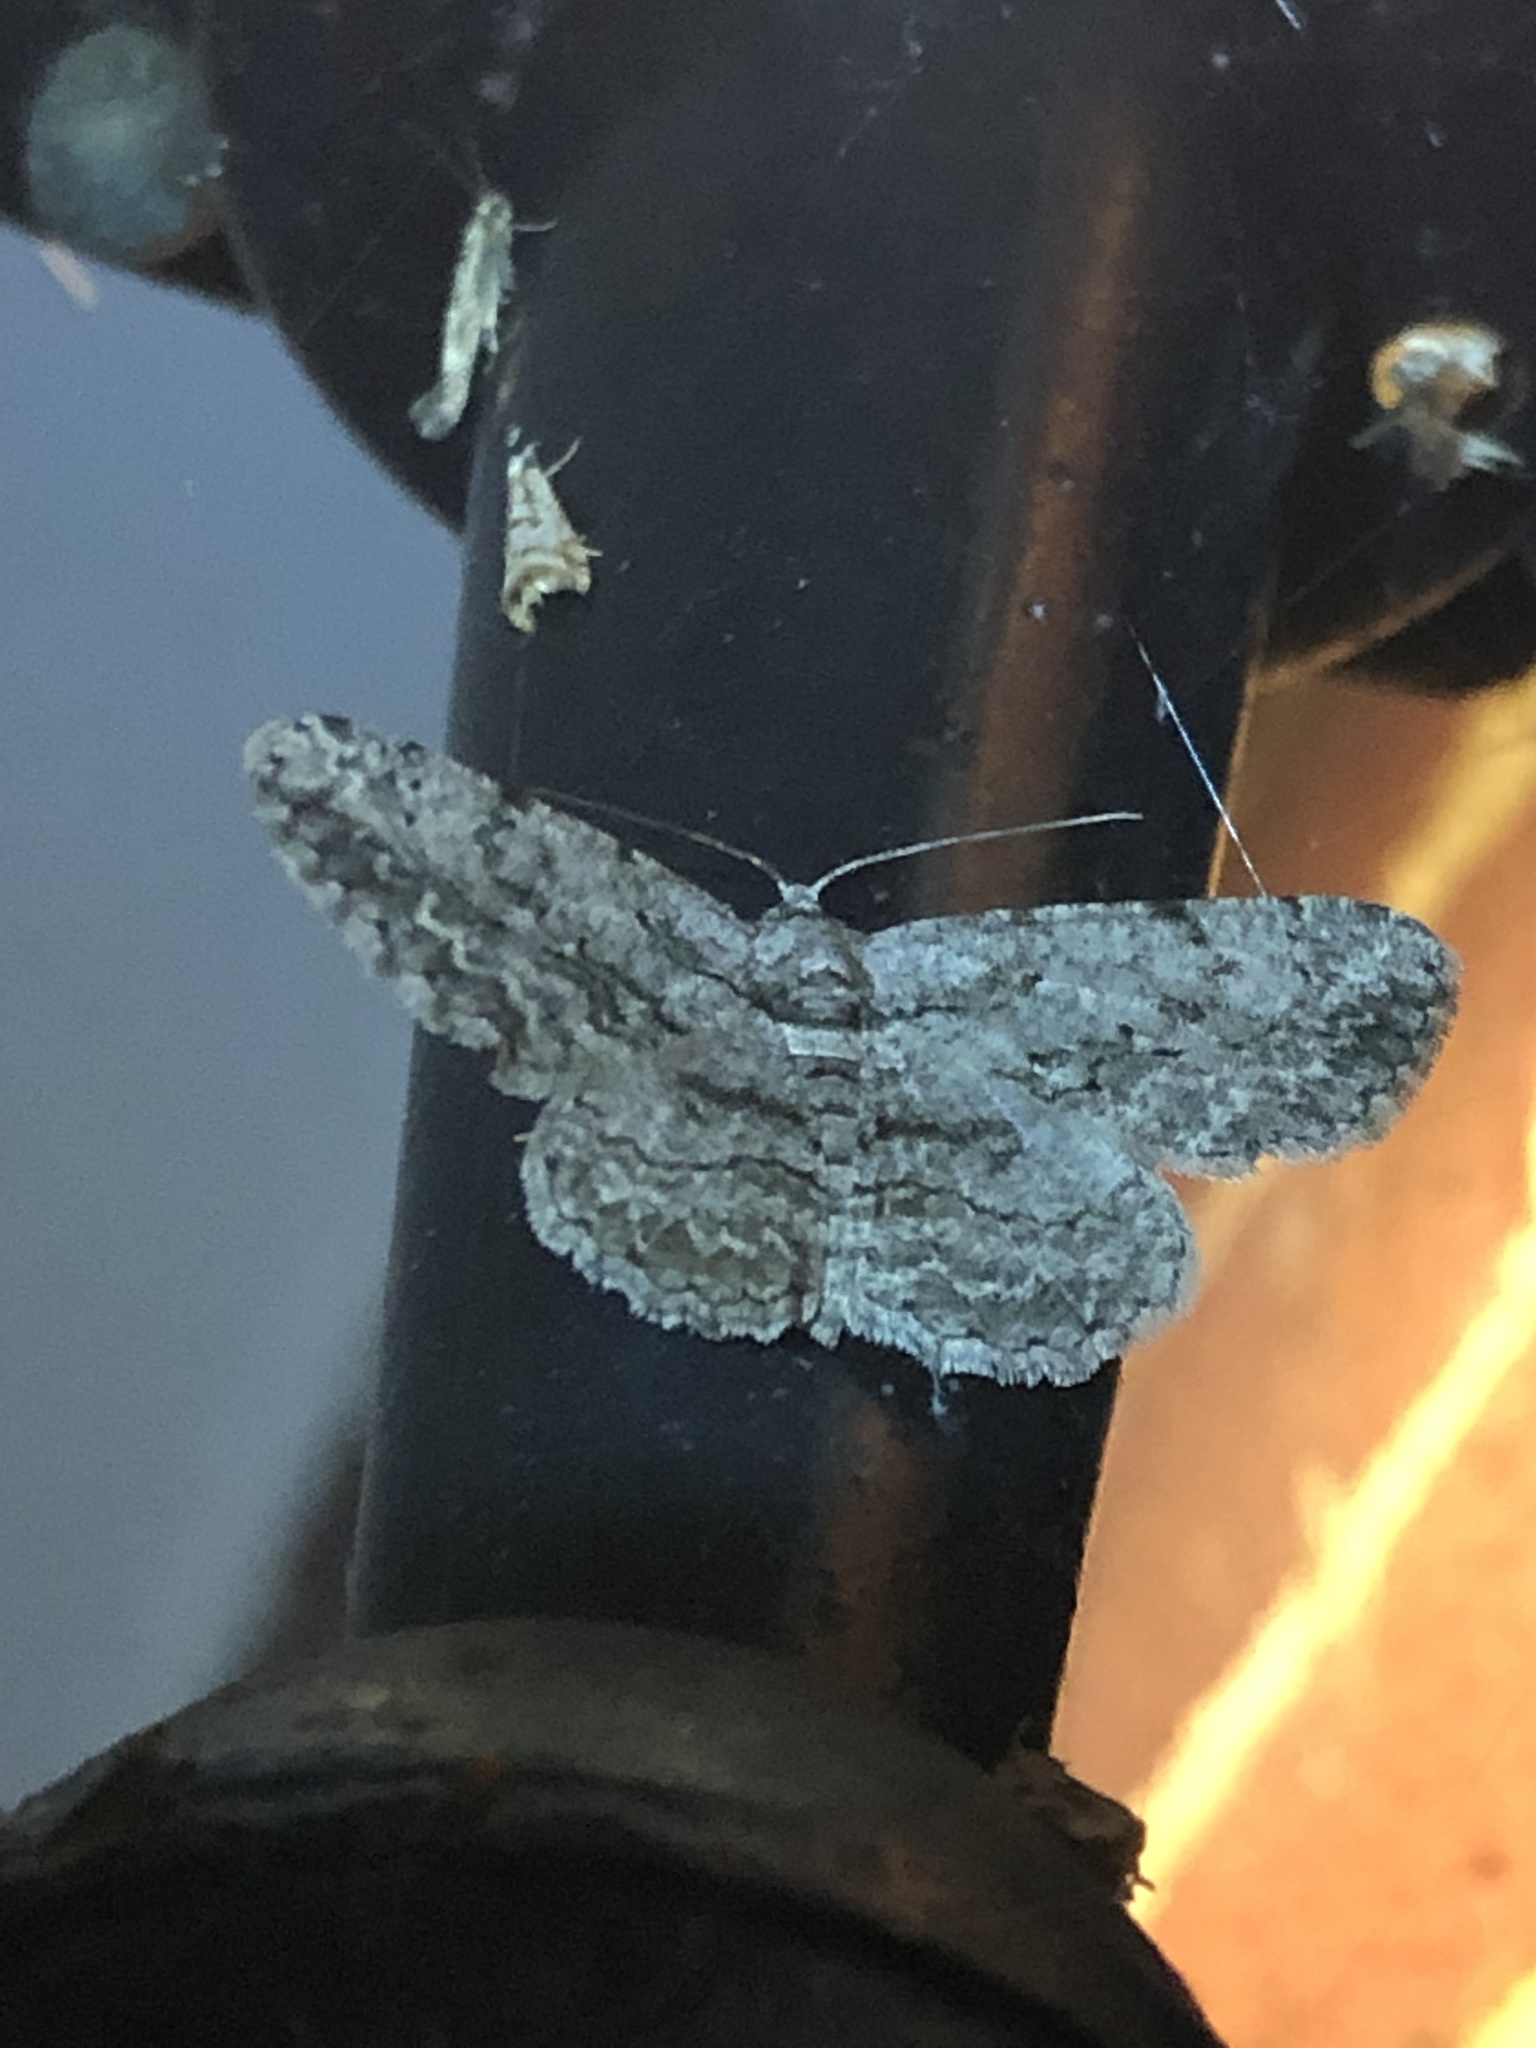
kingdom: Animalia
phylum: Arthropoda
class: Insecta
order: Lepidoptera
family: Geometridae
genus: Anavitrinella
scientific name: Anavitrinella pampinaria
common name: Common gray
